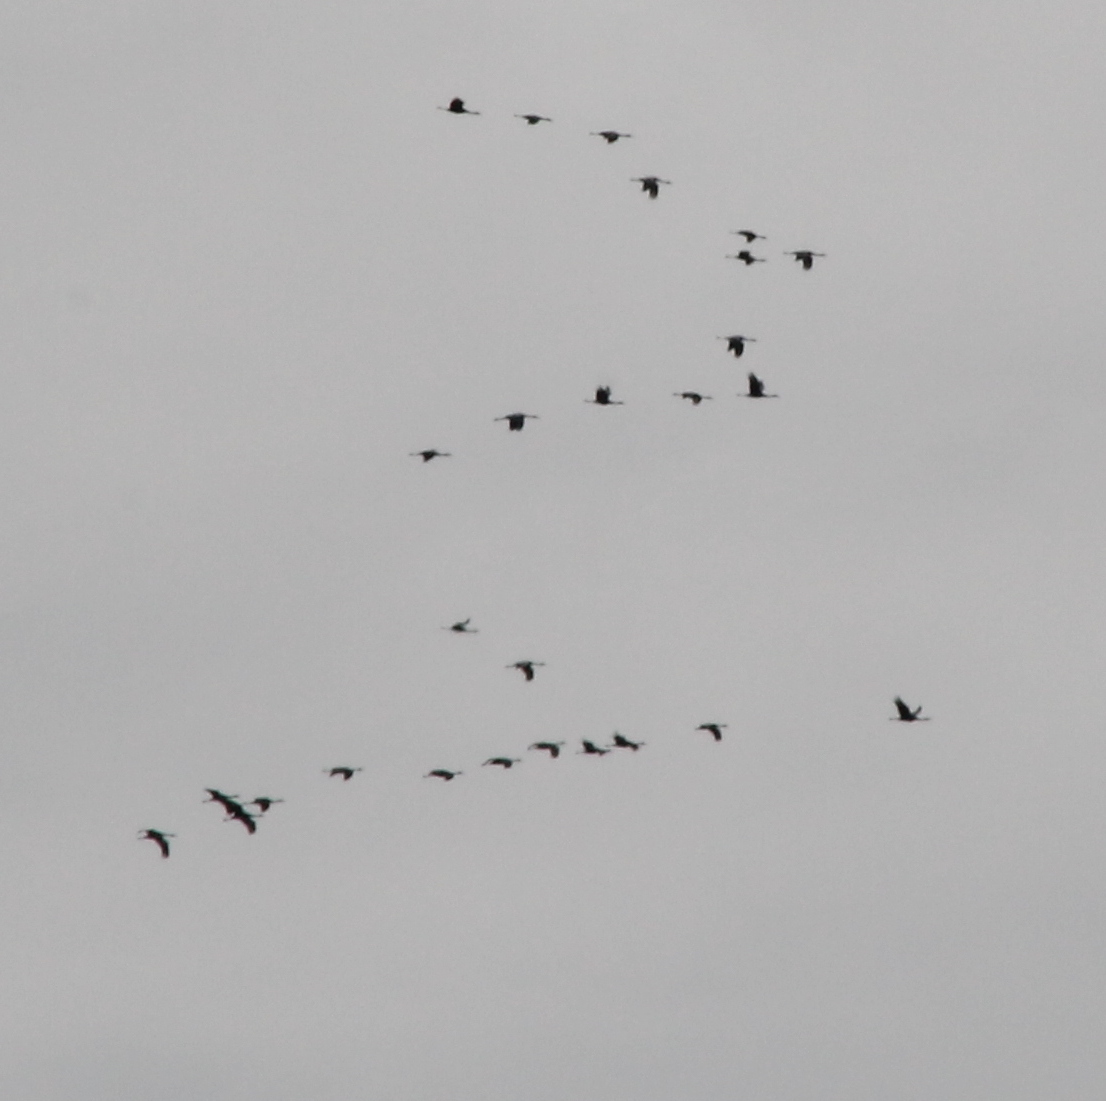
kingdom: Animalia
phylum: Chordata
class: Aves
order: Gruiformes
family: Gruidae
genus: Grus
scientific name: Grus canadensis
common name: Sandhill crane
